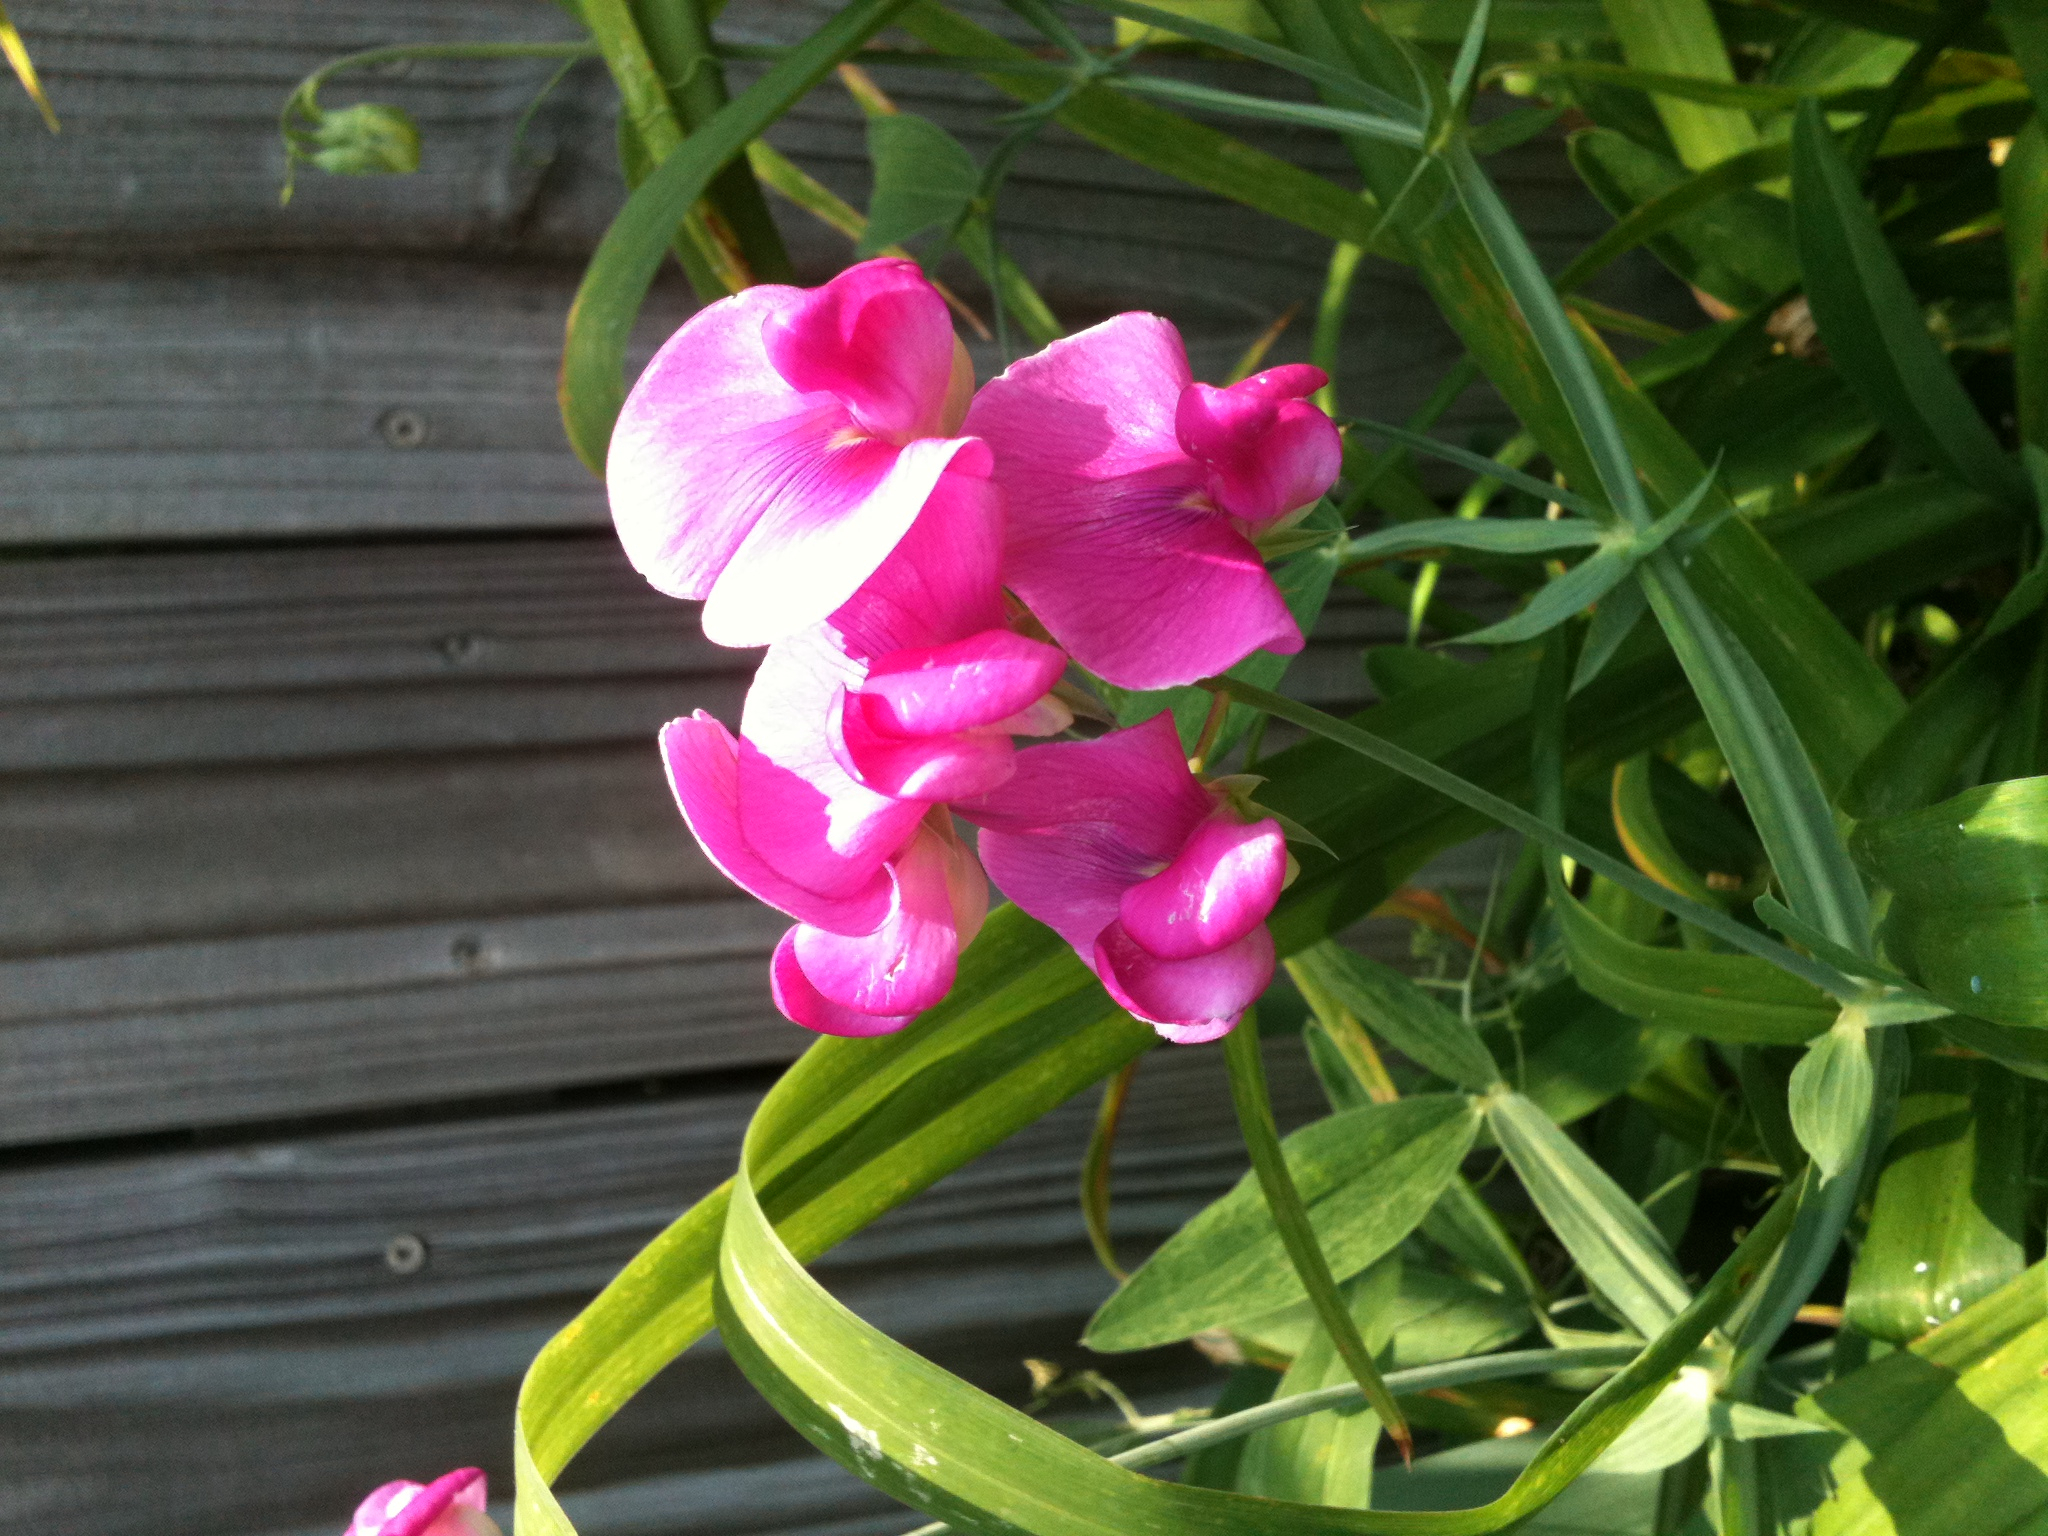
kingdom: Plantae
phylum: Tracheophyta
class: Magnoliopsida
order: Fabales
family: Fabaceae
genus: Lathyrus
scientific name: Lathyrus latifolius
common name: Perennial pea
